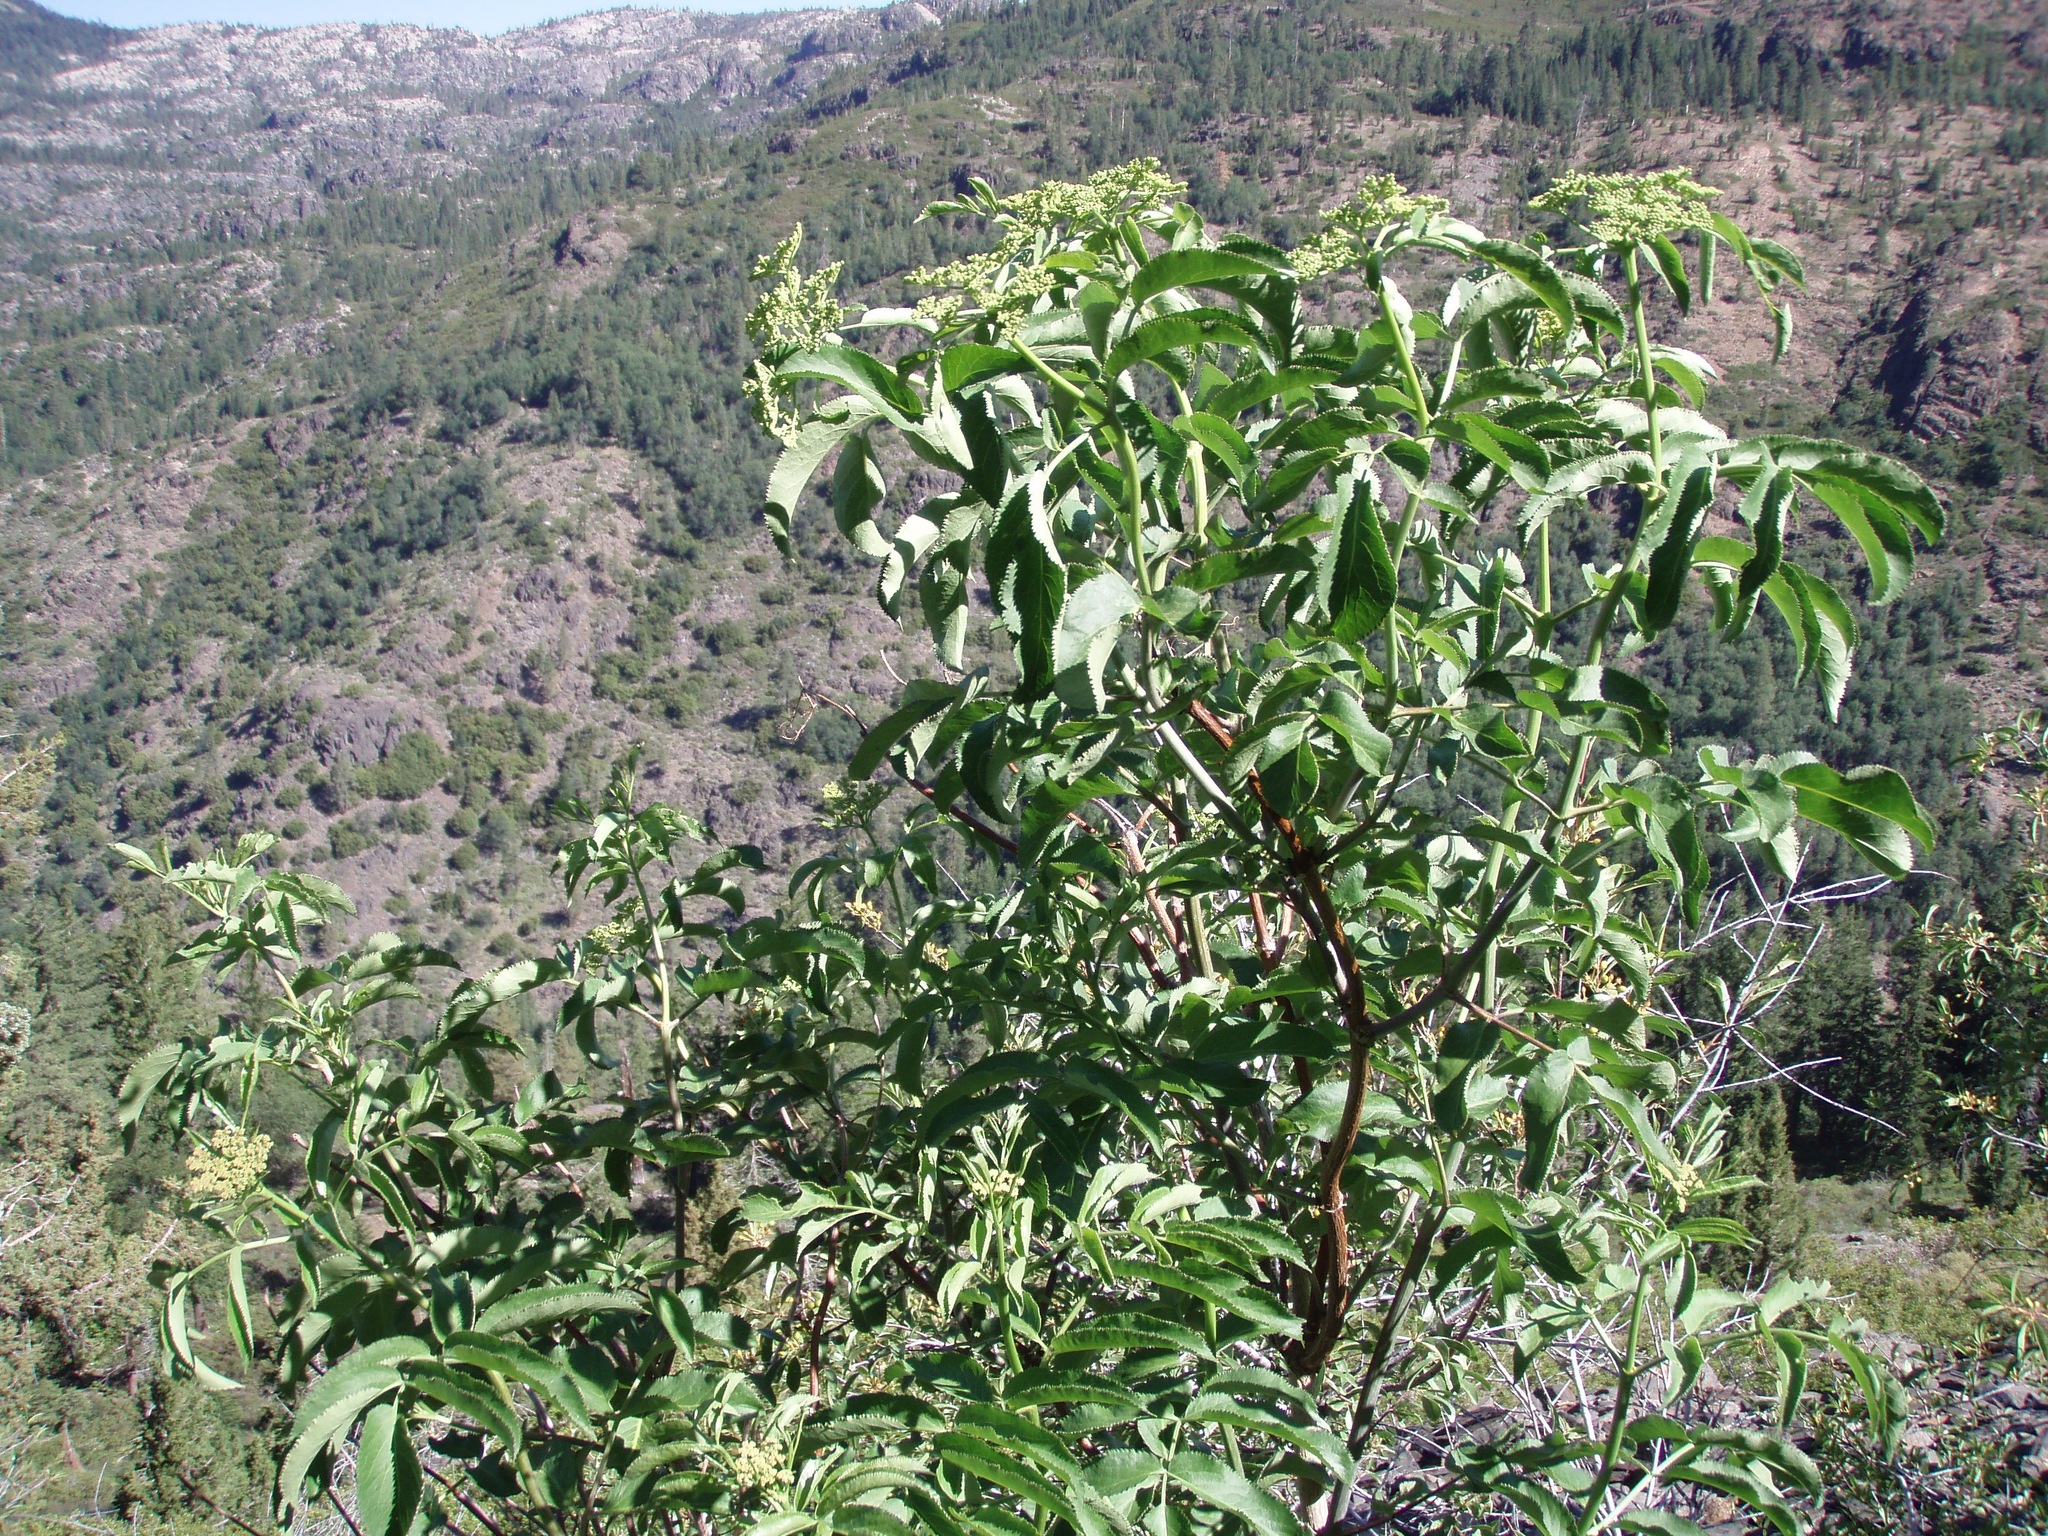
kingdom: Plantae
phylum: Tracheophyta
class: Magnoliopsida
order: Dipsacales
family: Viburnaceae
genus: Sambucus
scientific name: Sambucus cerulea
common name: Blue elder
